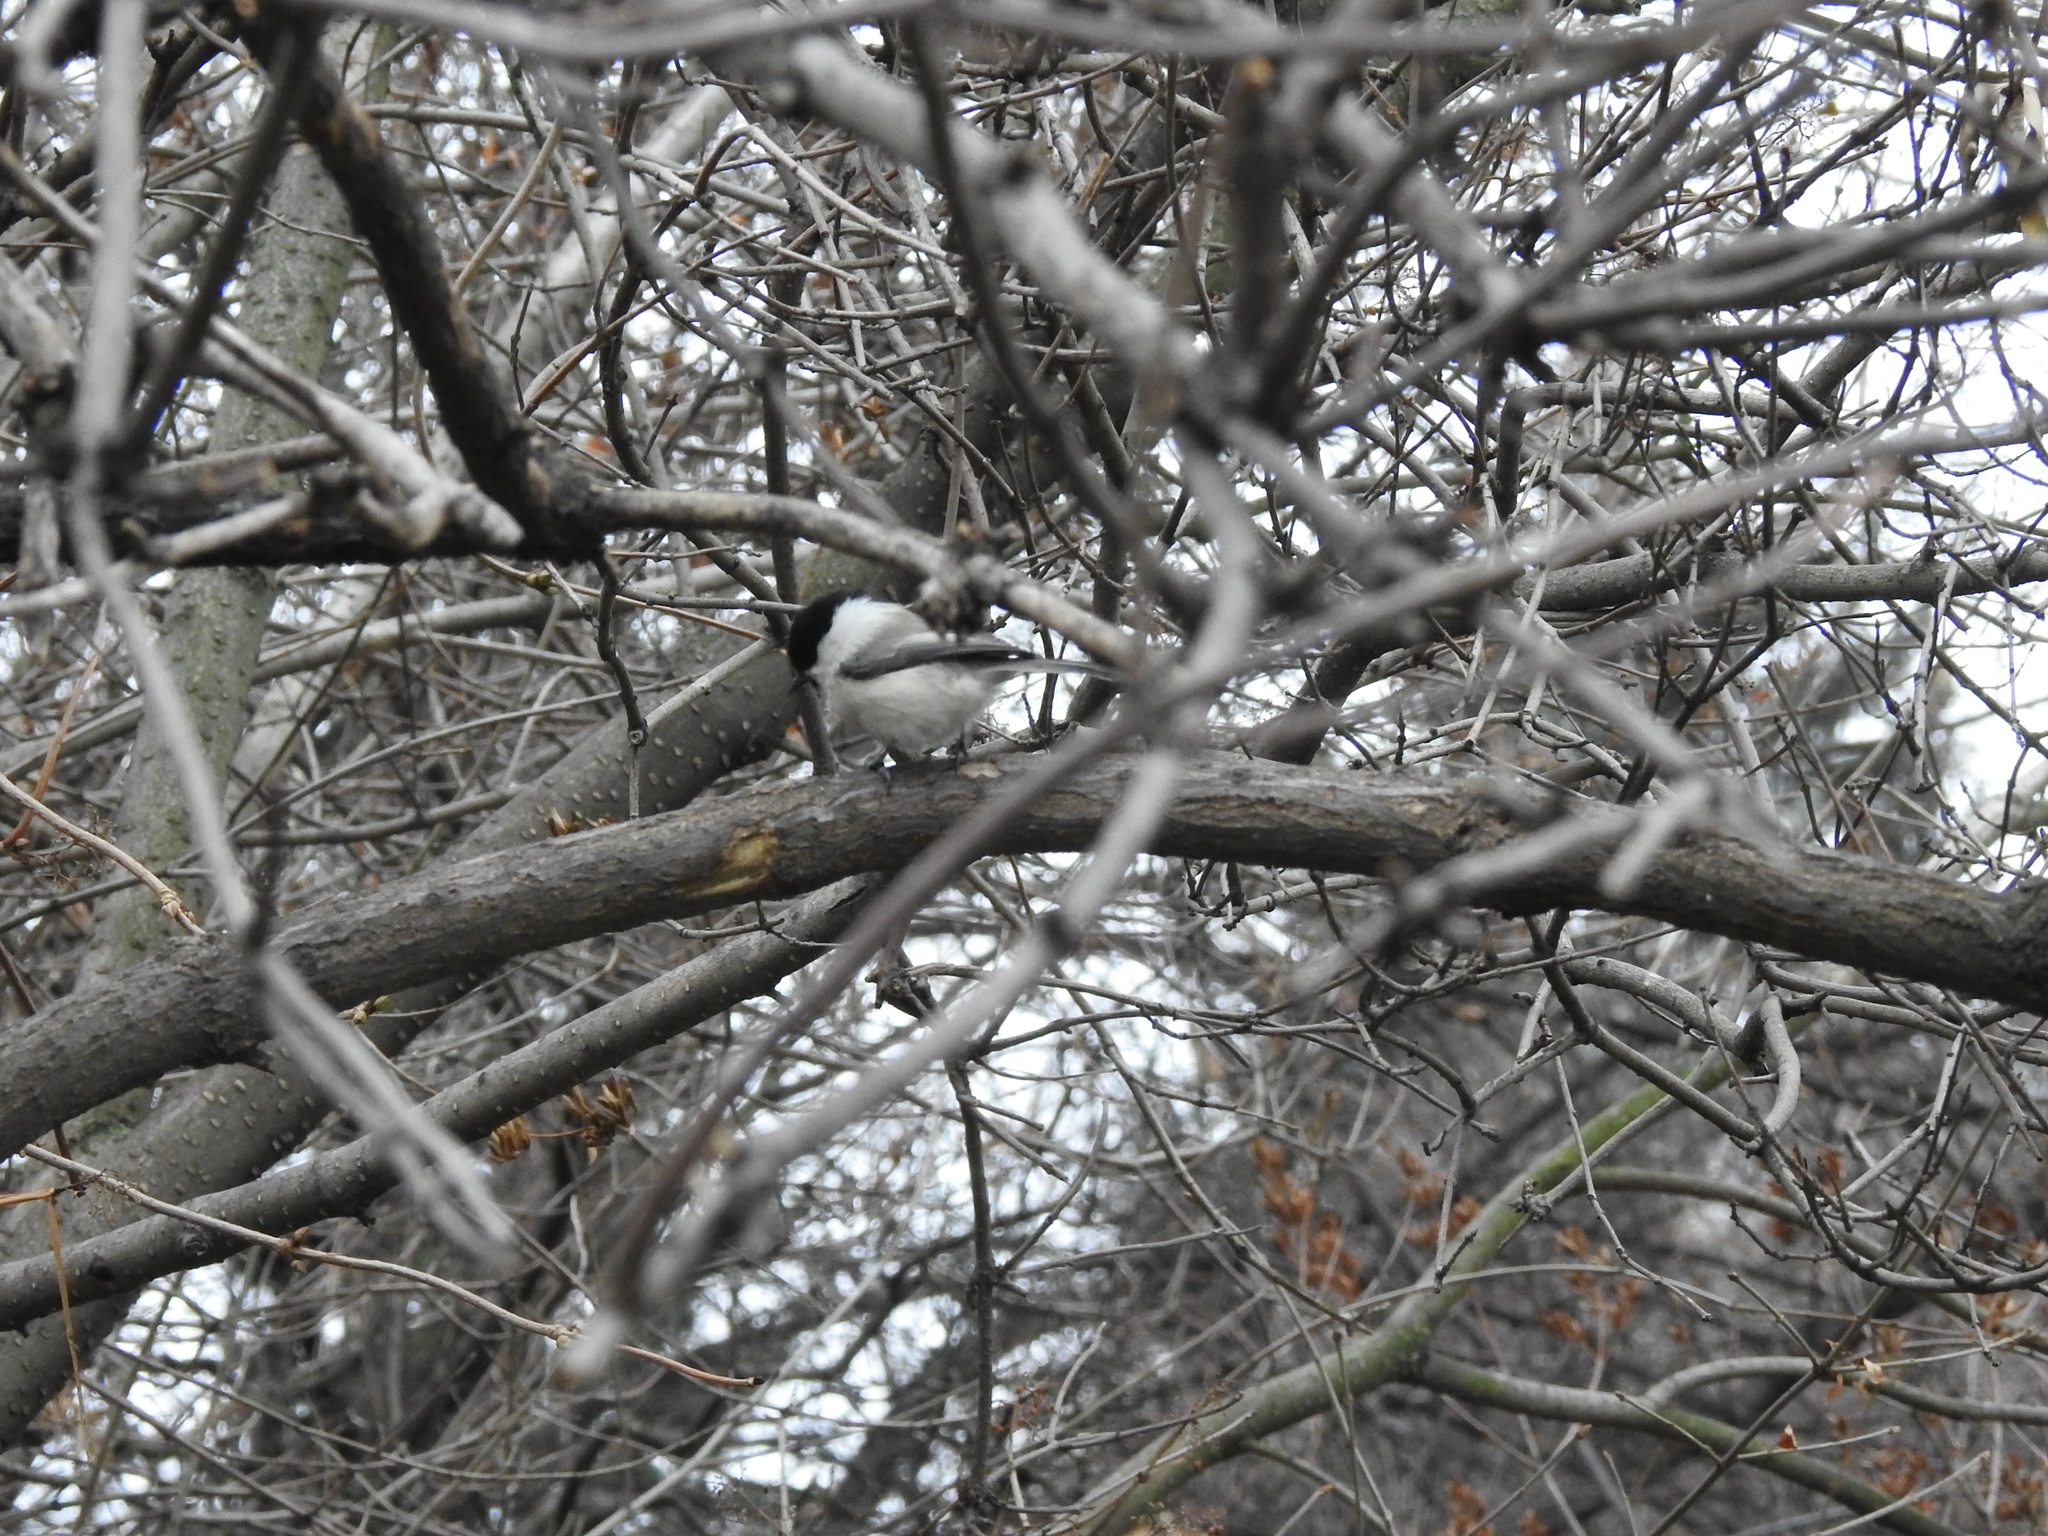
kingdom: Animalia
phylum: Chordata
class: Aves
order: Passeriformes
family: Paridae
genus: Poecile
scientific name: Poecile montanus
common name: Willow tit
